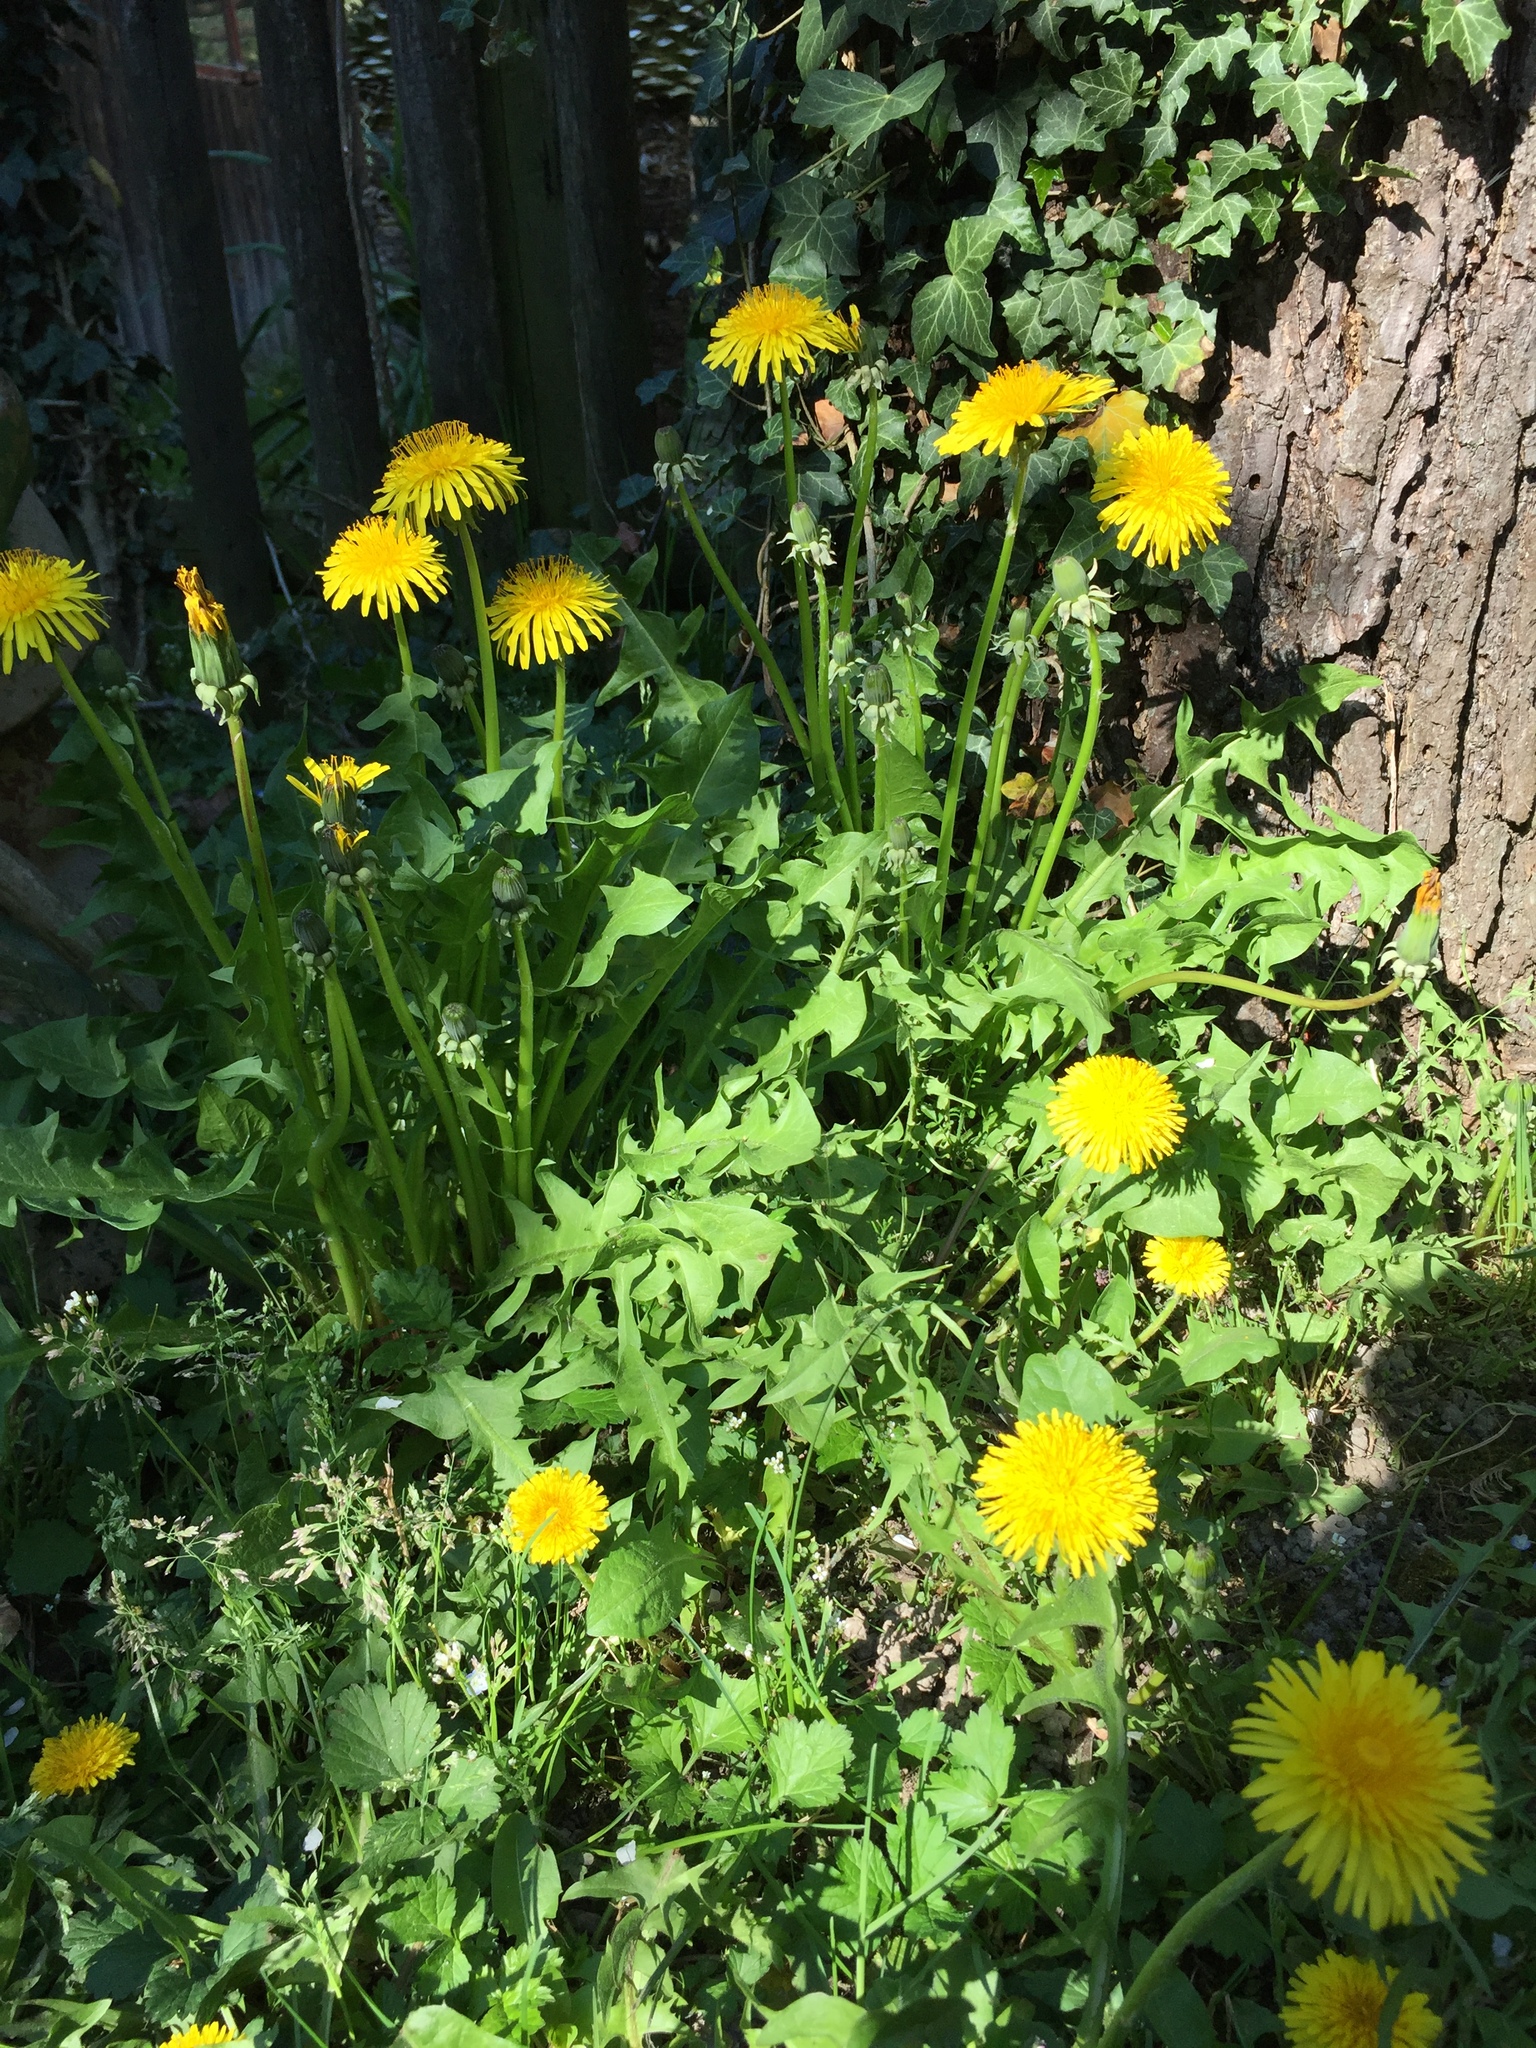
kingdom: Plantae
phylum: Tracheophyta
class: Magnoliopsida
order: Asterales
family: Asteraceae
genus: Taraxacum
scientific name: Taraxacum officinale
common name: Common dandelion
